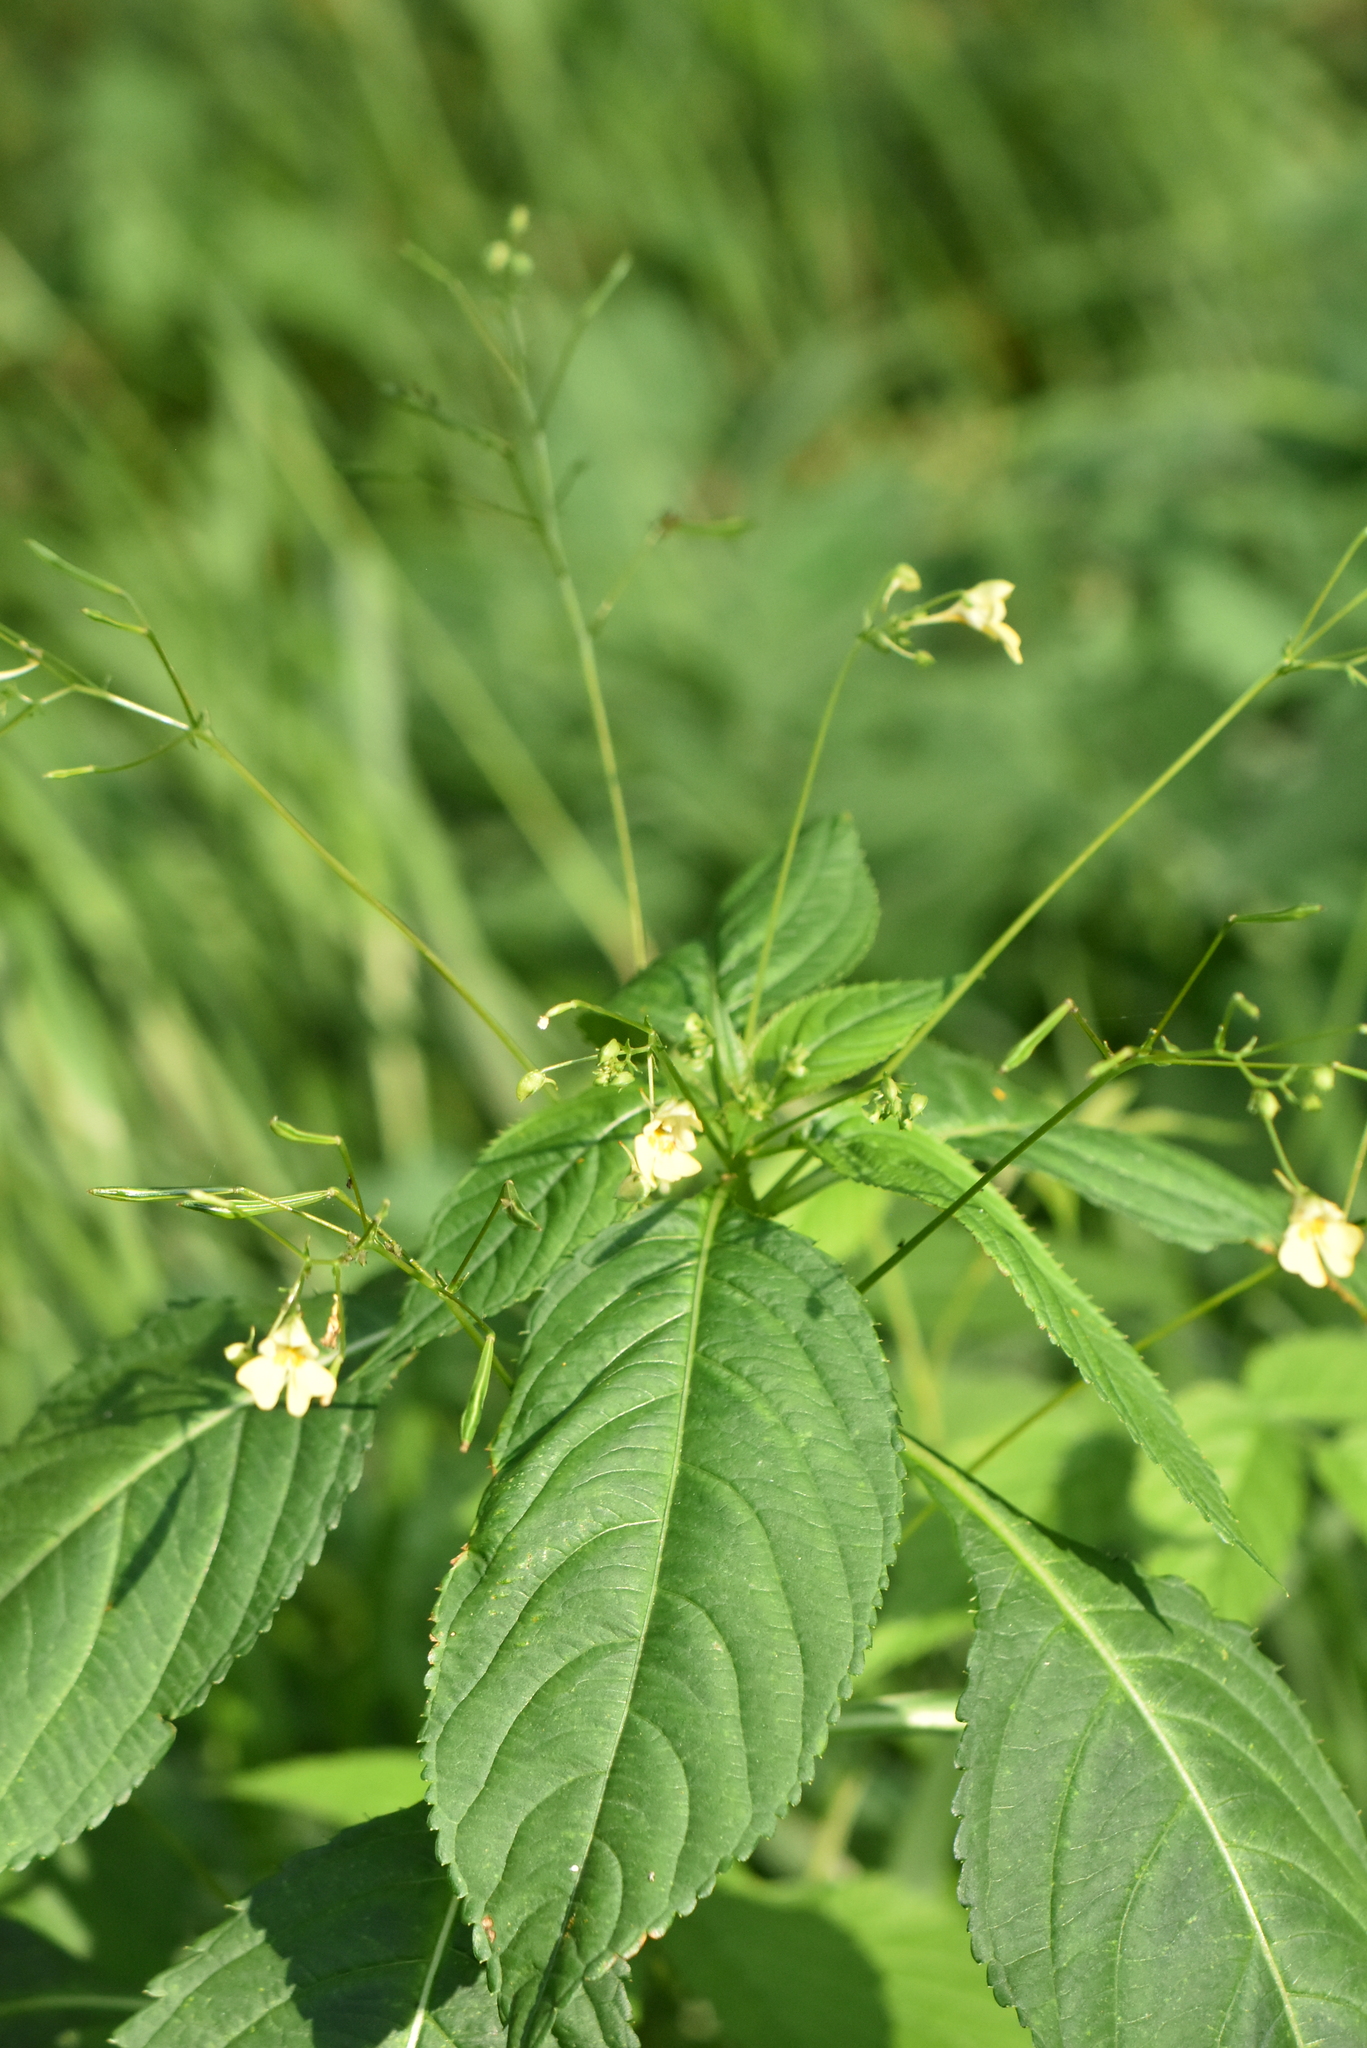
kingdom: Plantae
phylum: Tracheophyta
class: Magnoliopsida
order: Ericales
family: Balsaminaceae
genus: Impatiens
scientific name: Impatiens parviflora
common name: Small balsam
